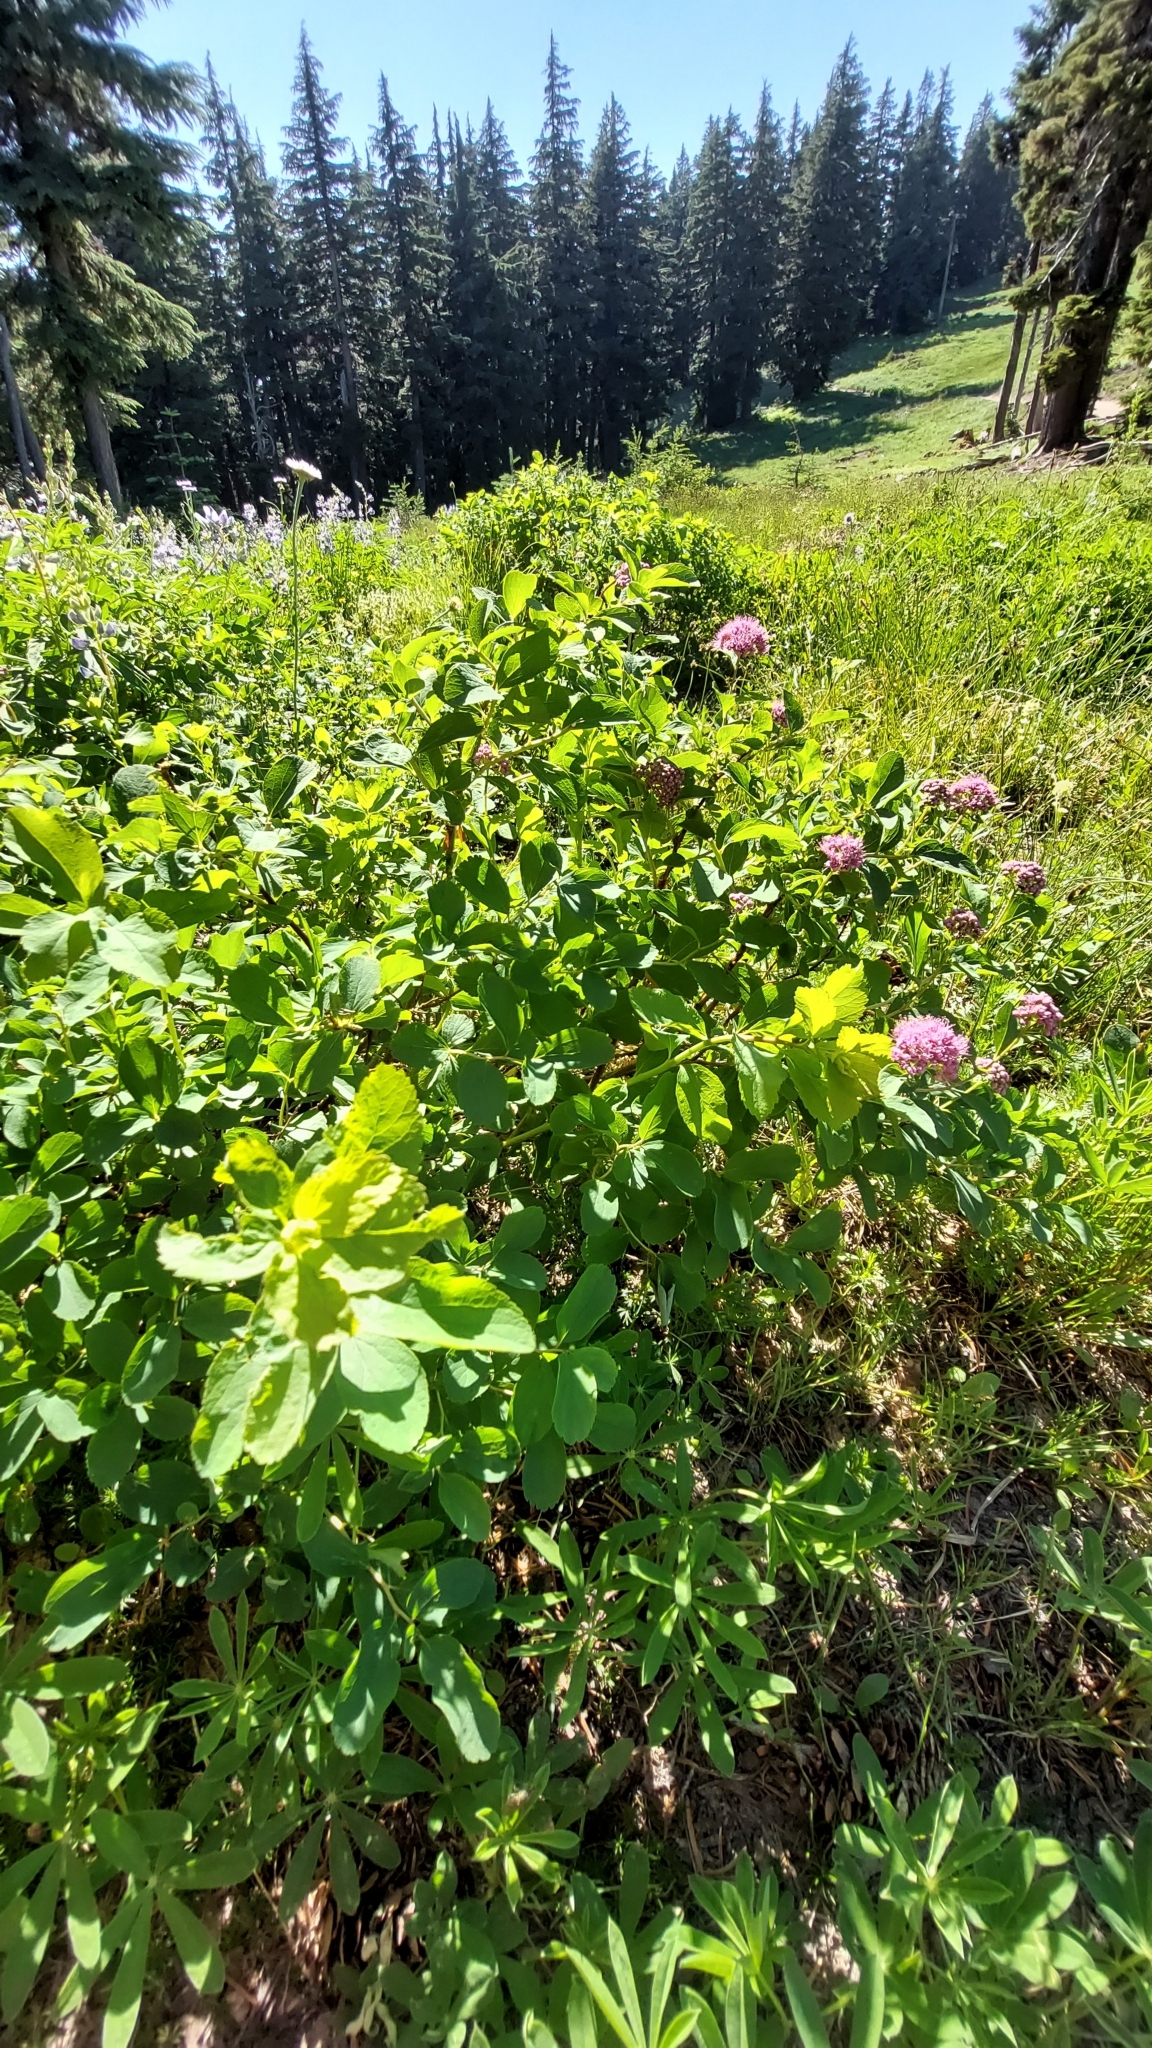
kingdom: Plantae
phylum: Tracheophyta
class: Magnoliopsida
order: Rosales
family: Rosaceae
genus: Spiraea
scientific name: Spiraea splendens
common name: Subalpine meadowsweet
